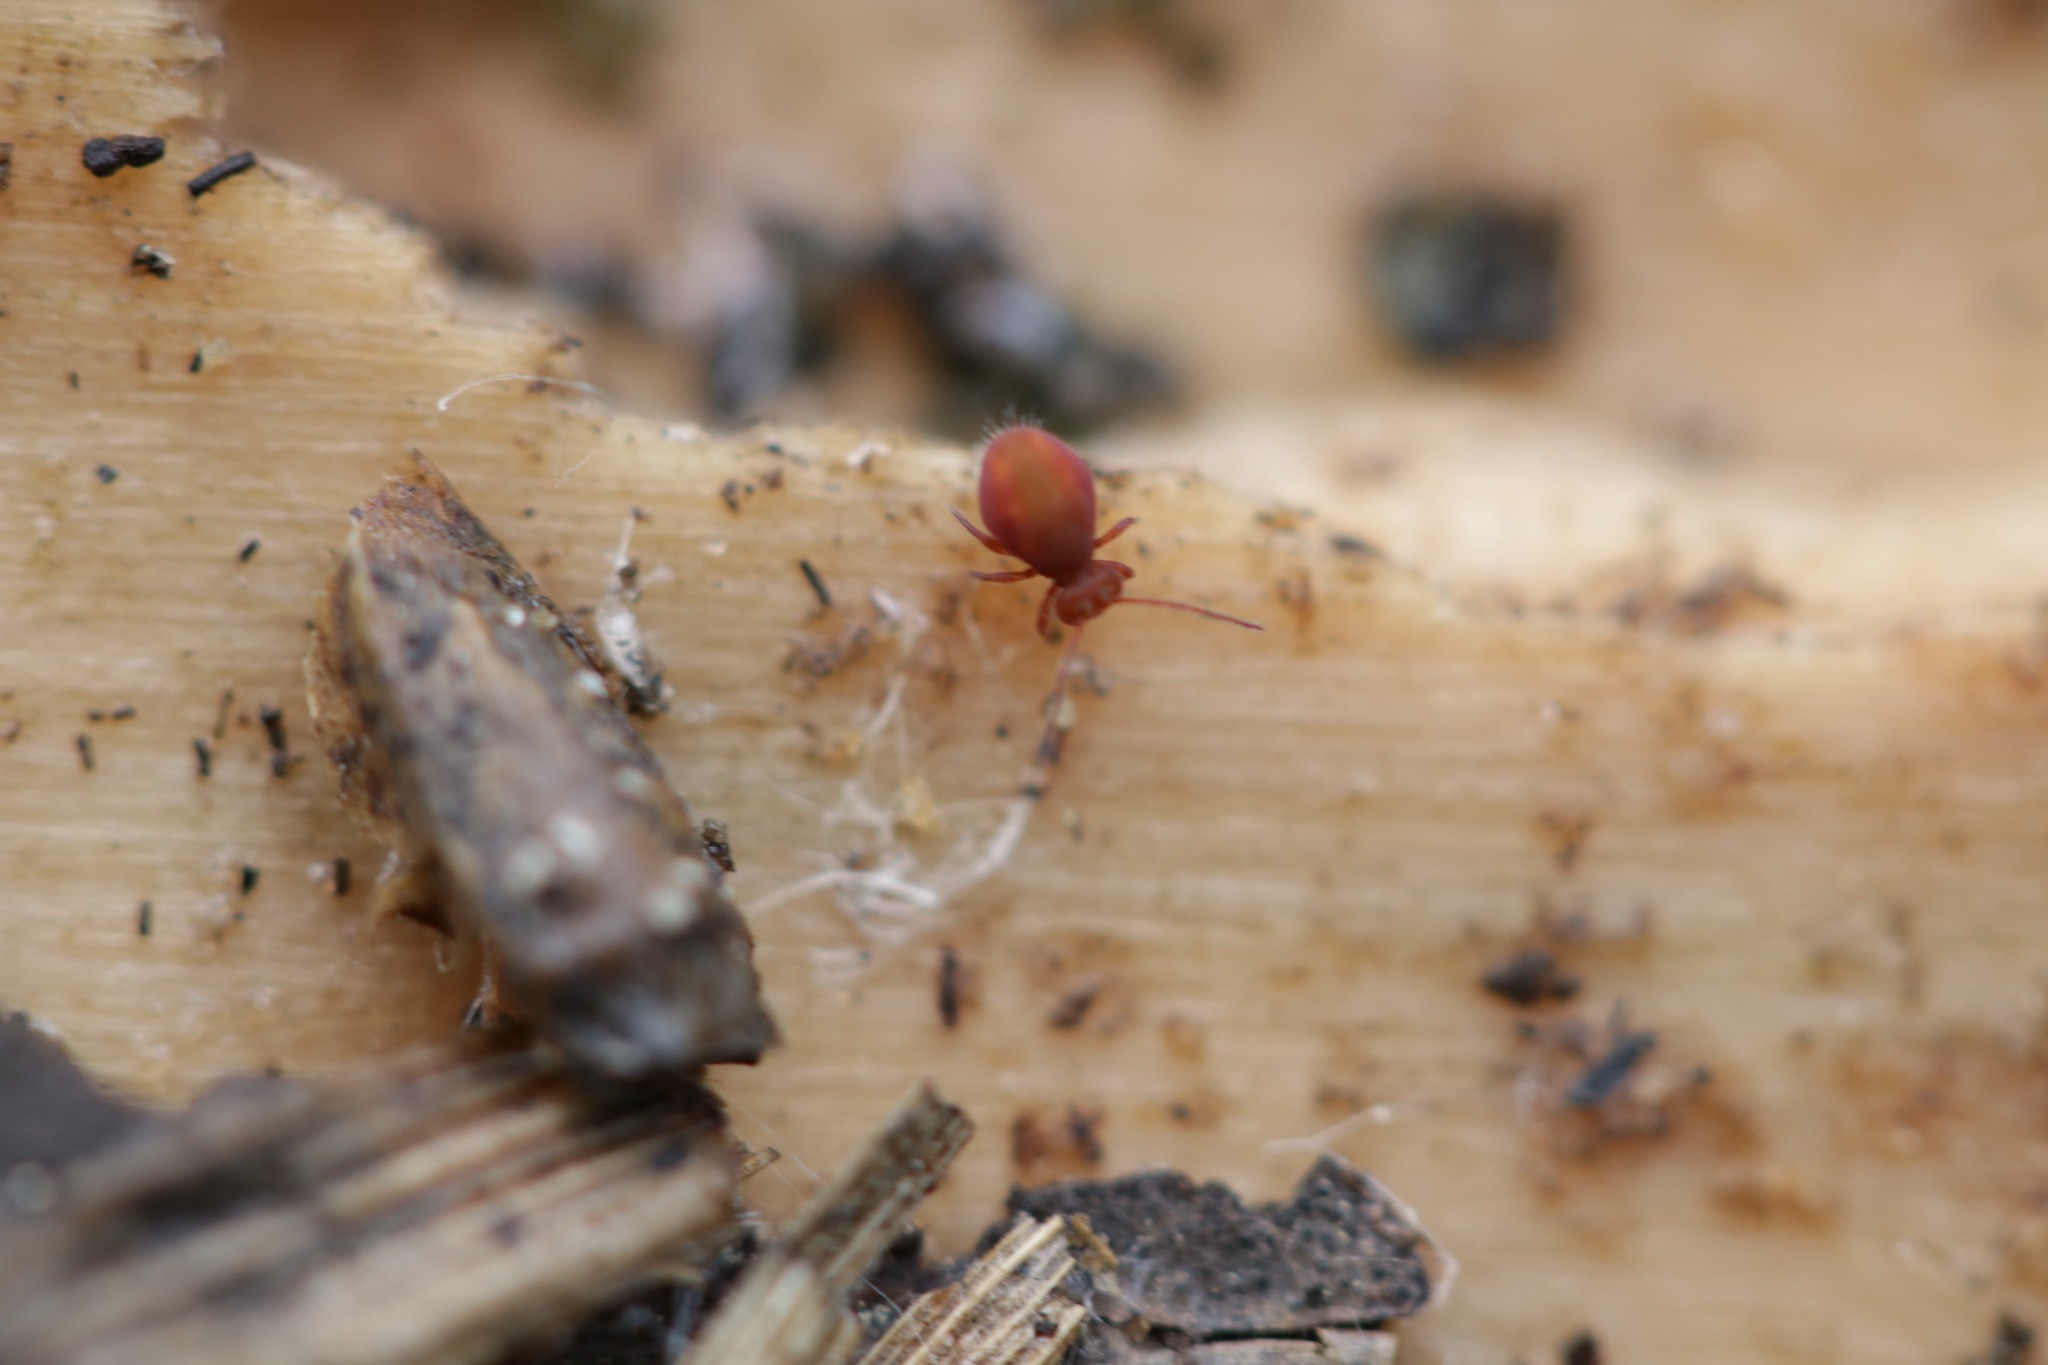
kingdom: Animalia
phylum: Arthropoda
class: Collembola
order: Symphypleona
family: Dicyrtomidae
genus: Dicyrtoma
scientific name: Dicyrtoma fusca
